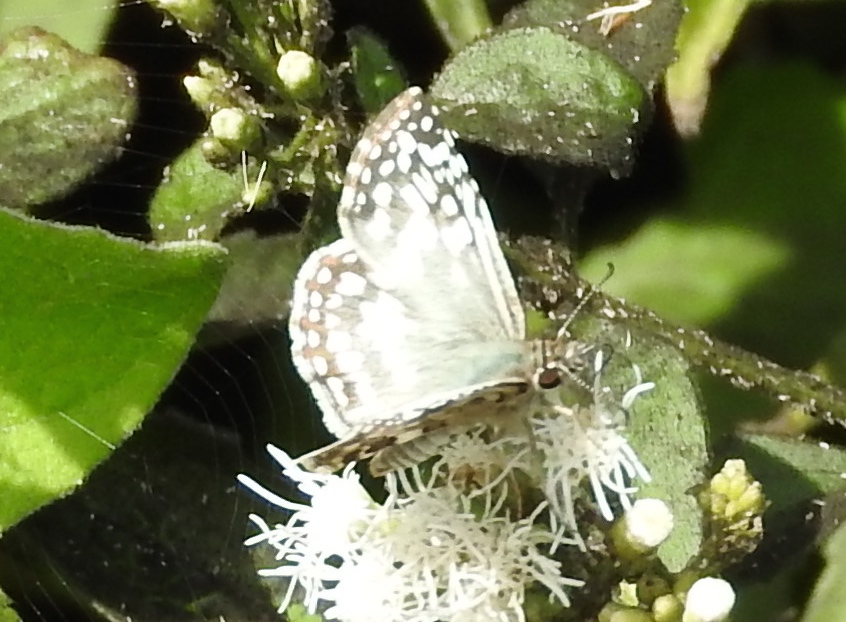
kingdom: Animalia
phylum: Arthropoda
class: Insecta
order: Lepidoptera
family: Hesperiidae
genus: Burnsius
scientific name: Burnsius
